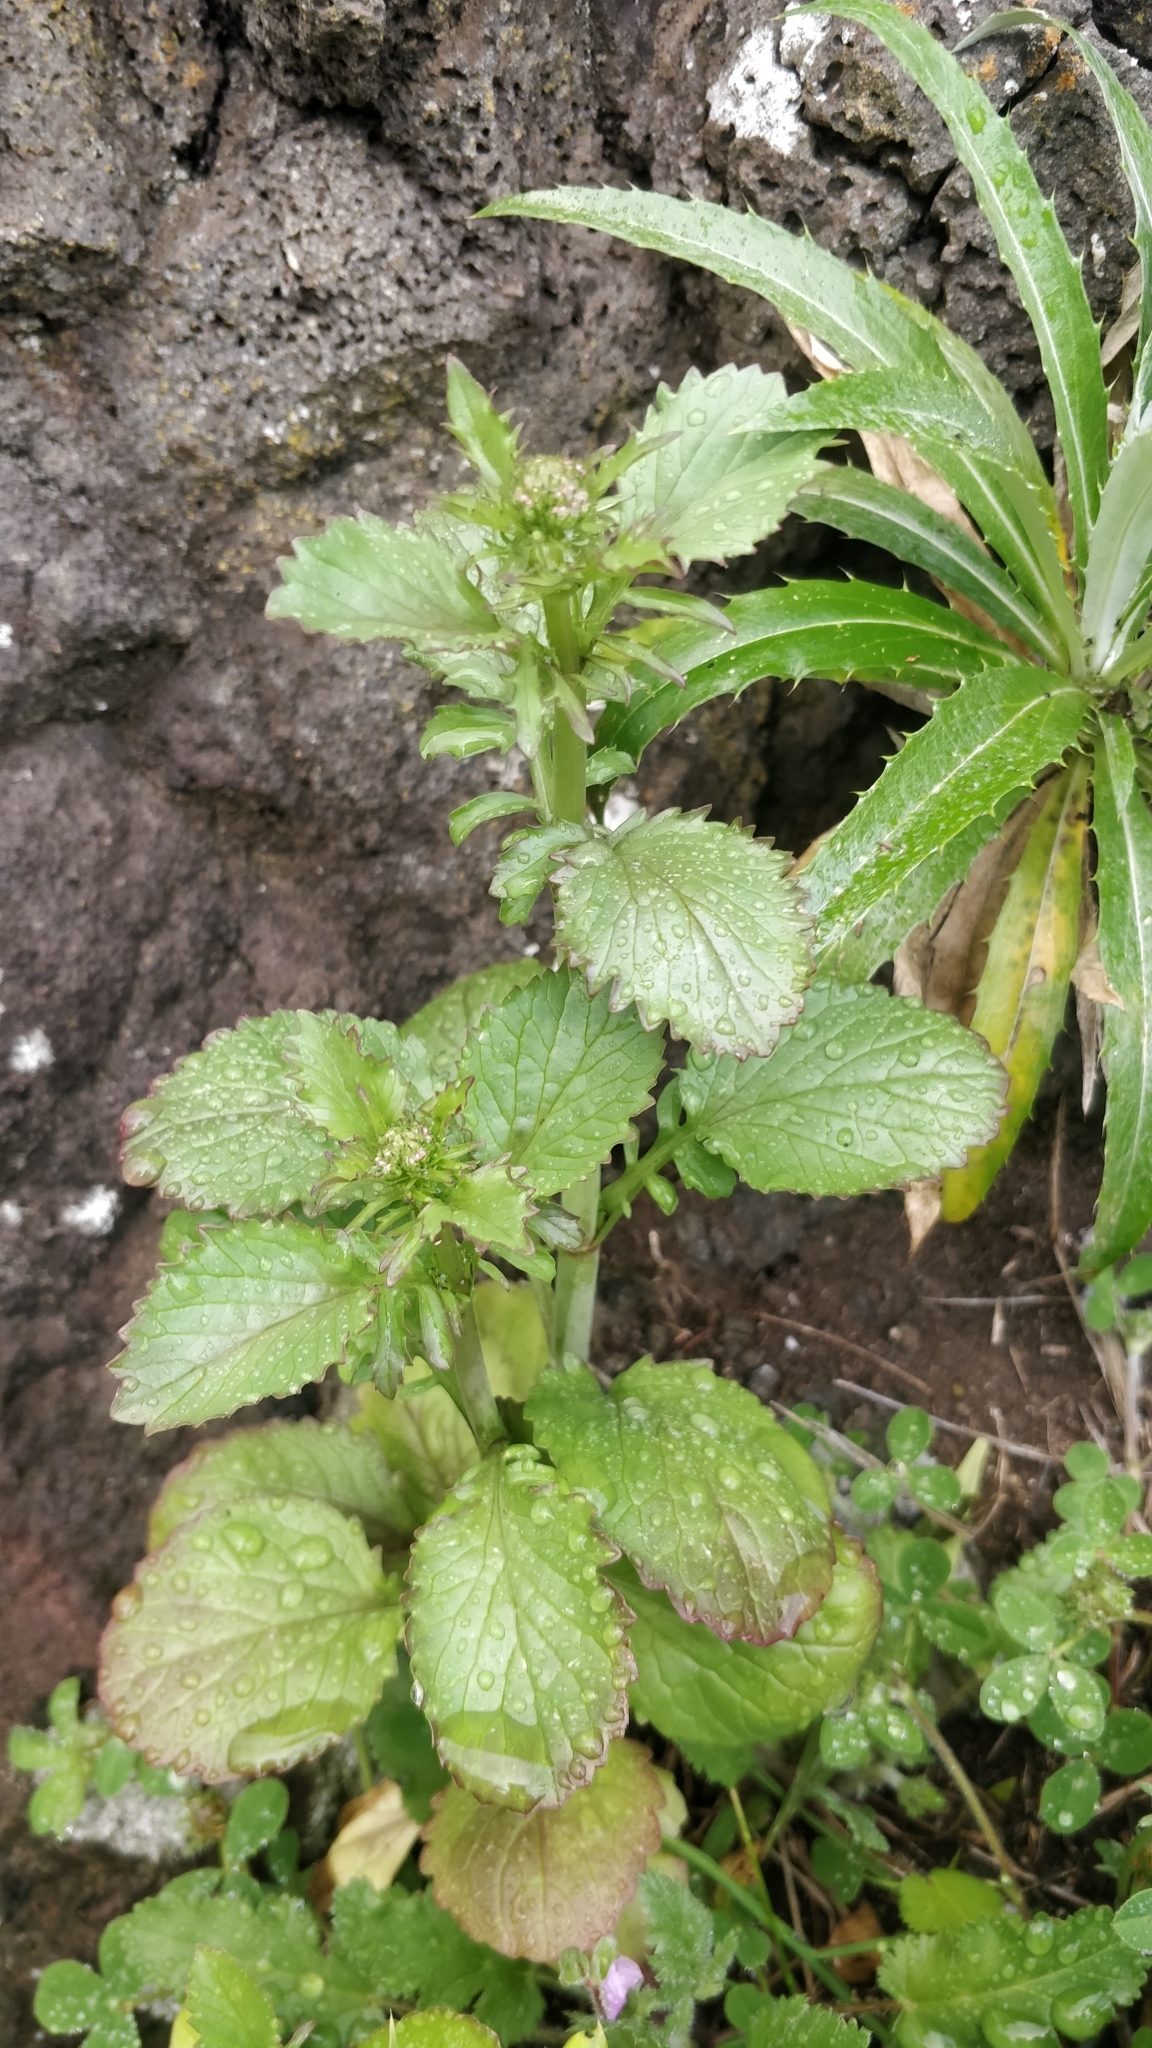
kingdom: Plantae
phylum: Tracheophyta
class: Magnoliopsida
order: Dipsacales
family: Caprifoliaceae
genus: Centranthus
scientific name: Centranthus calcitrapae
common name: Annual valerian
